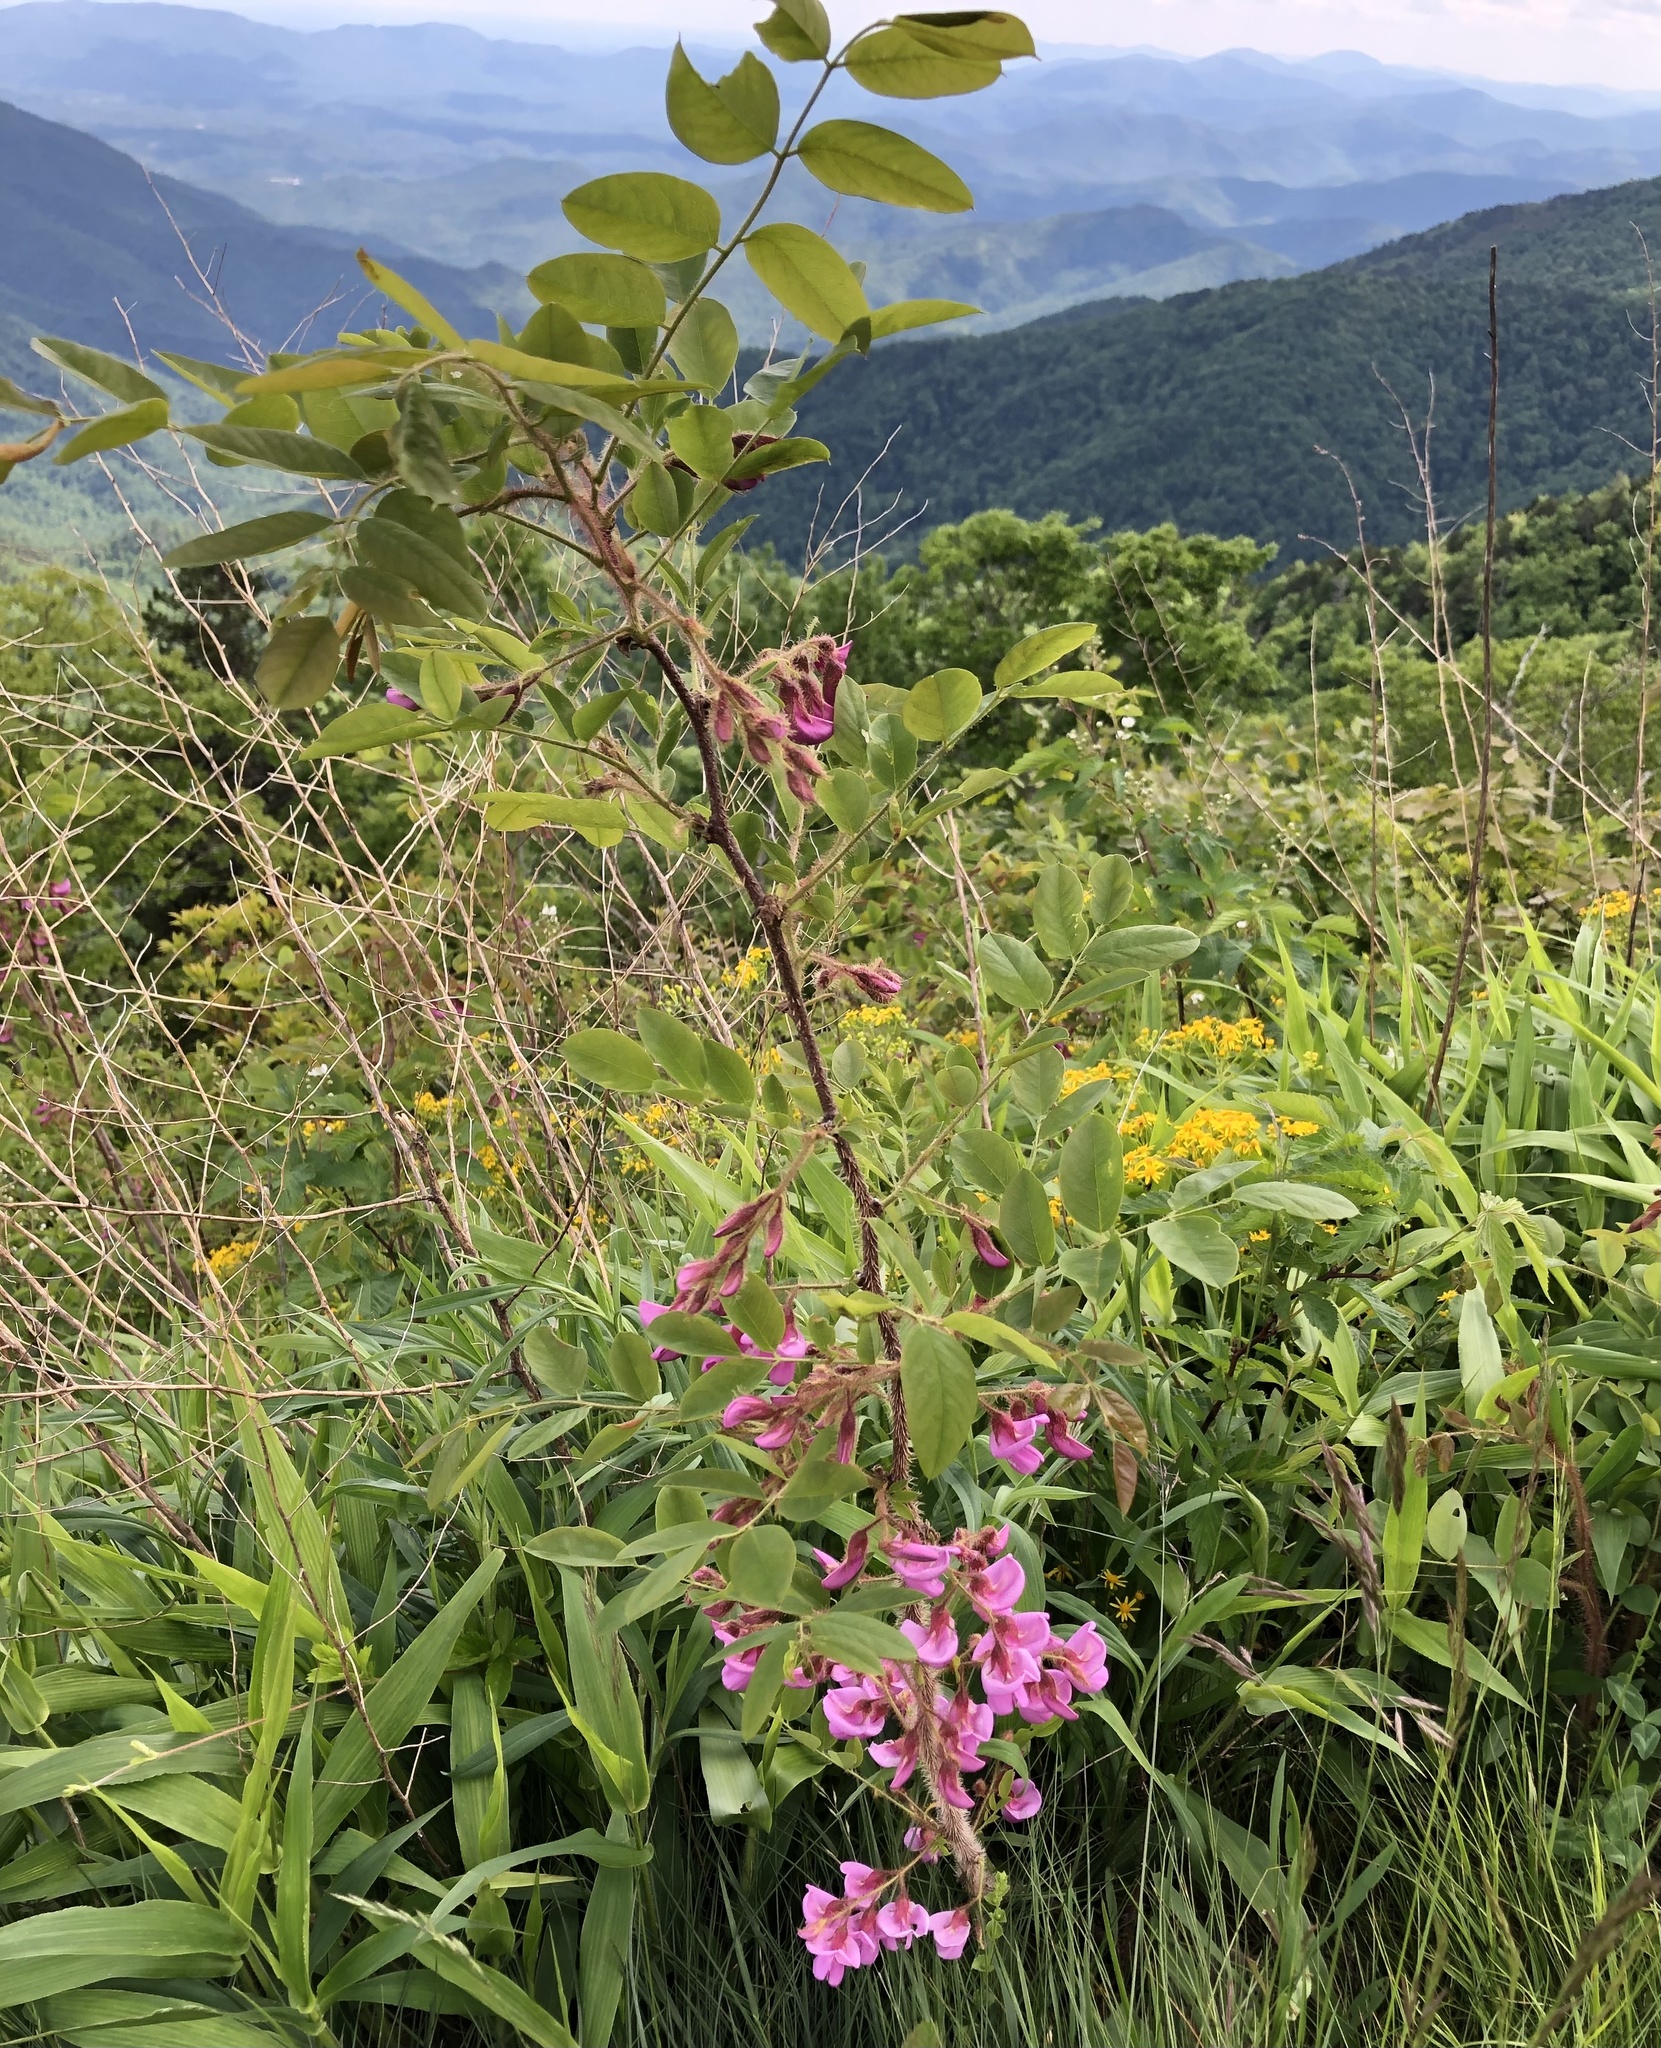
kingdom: Plantae
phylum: Tracheophyta
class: Magnoliopsida
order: Fabales
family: Fabaceae
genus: Robinia
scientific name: Robinia hispida
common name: Bristly locust
